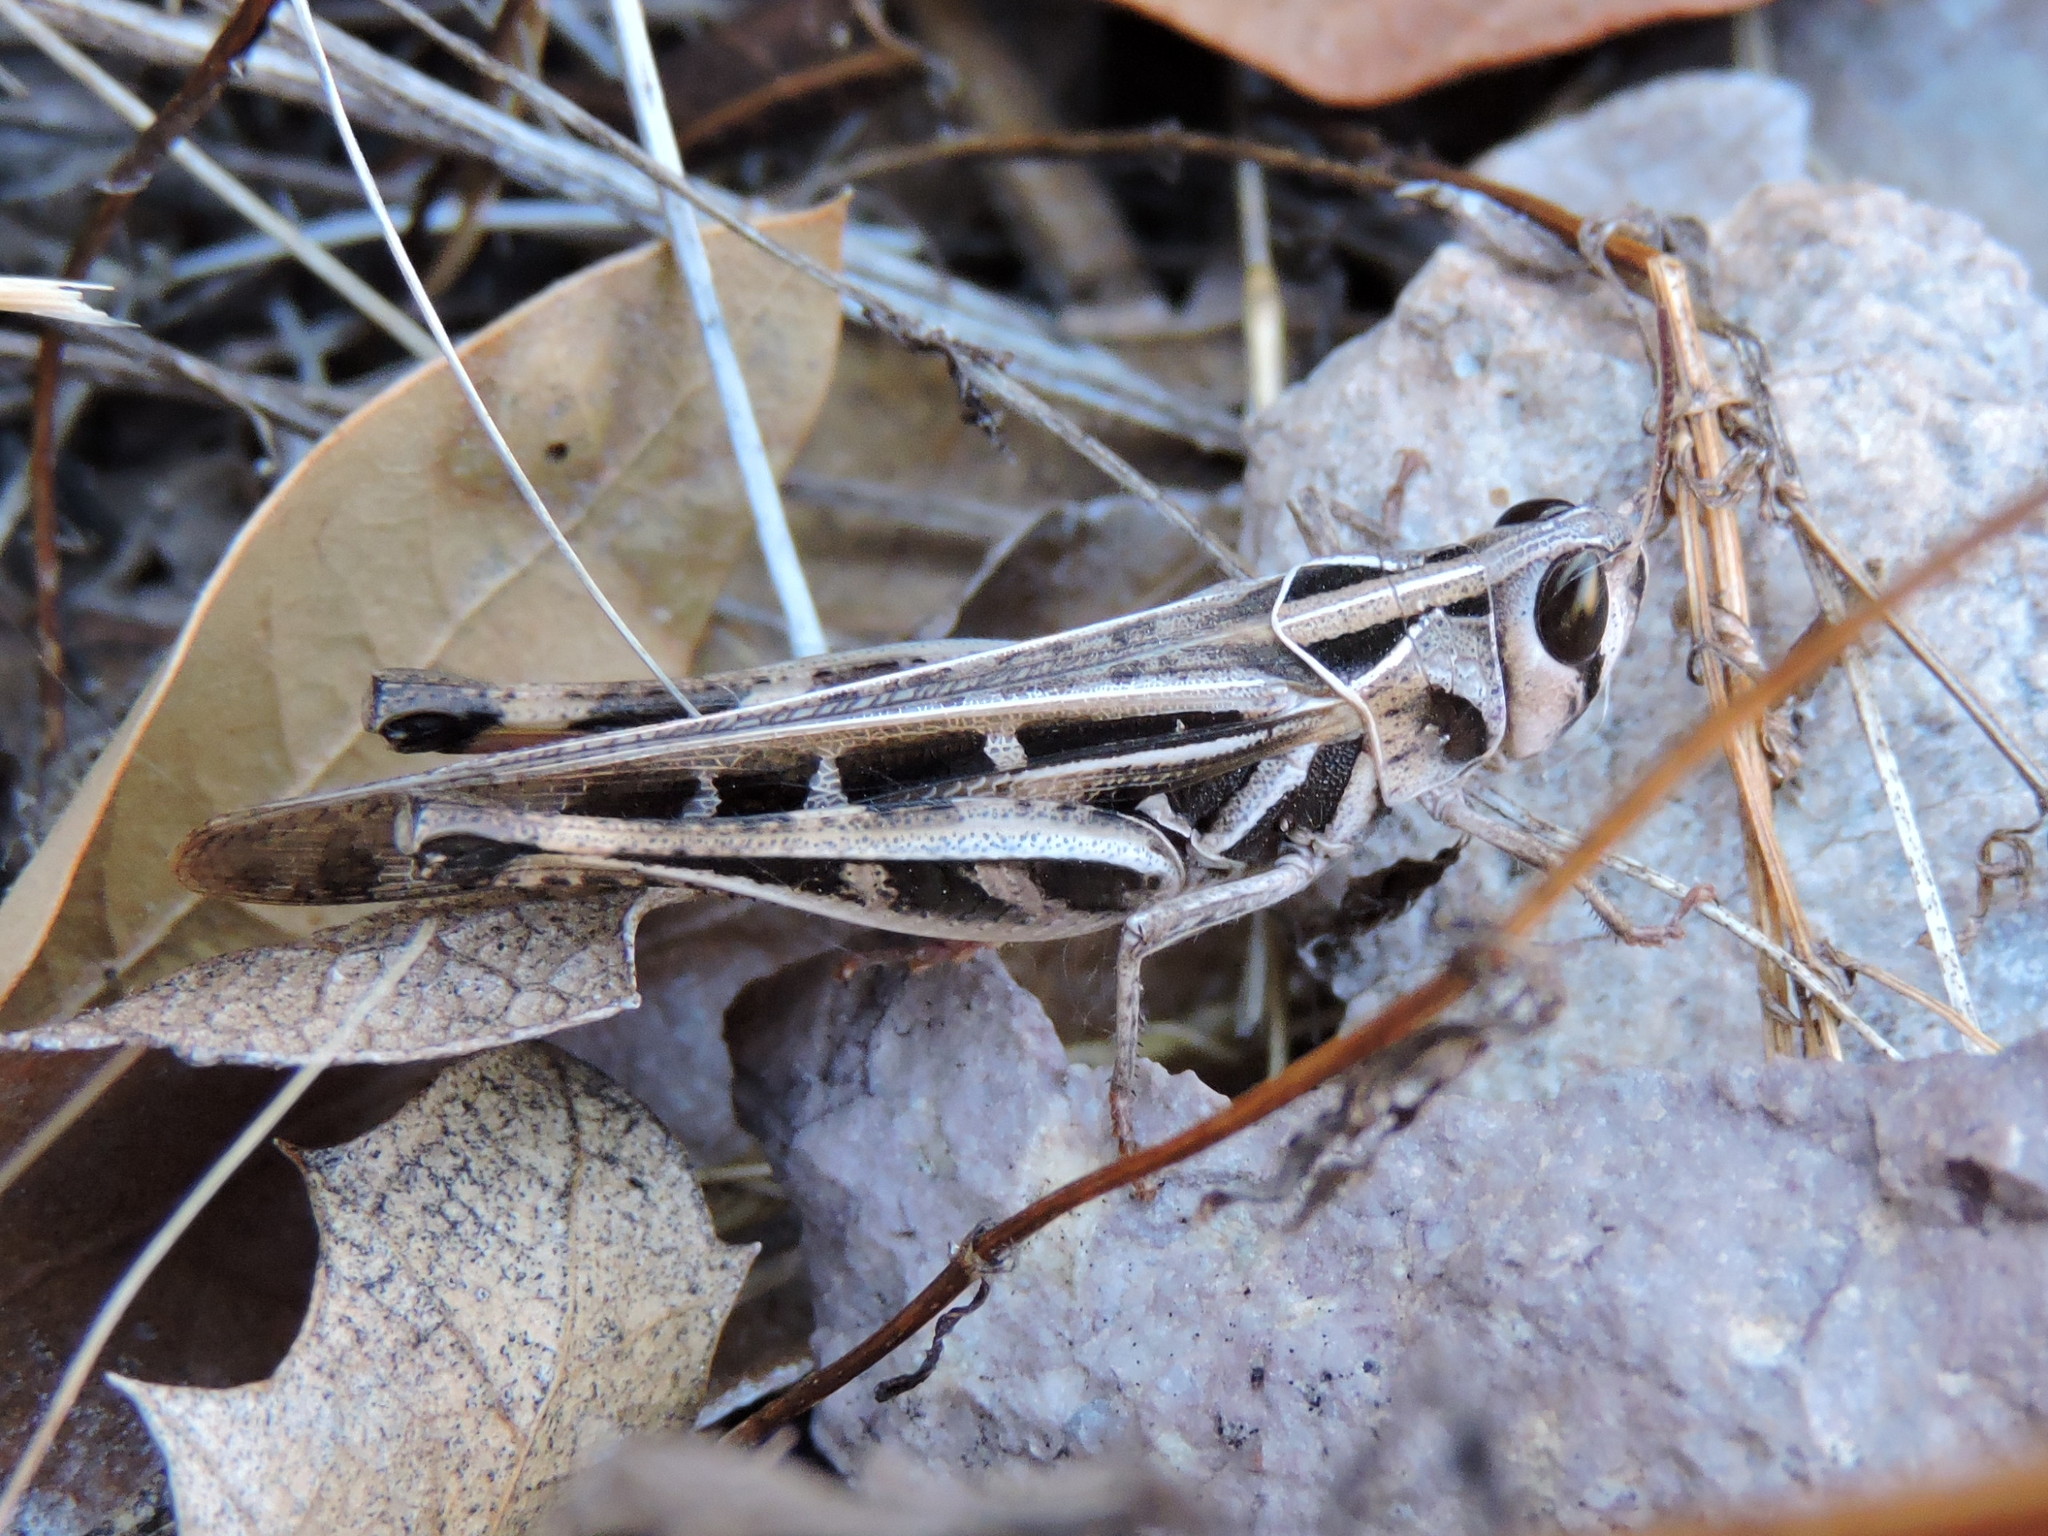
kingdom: Animalia
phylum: Arthropoda
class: Insecta
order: Orthoptera
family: Acrididae
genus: Rhammatocerus
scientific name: Rhammatocerus viatorius
